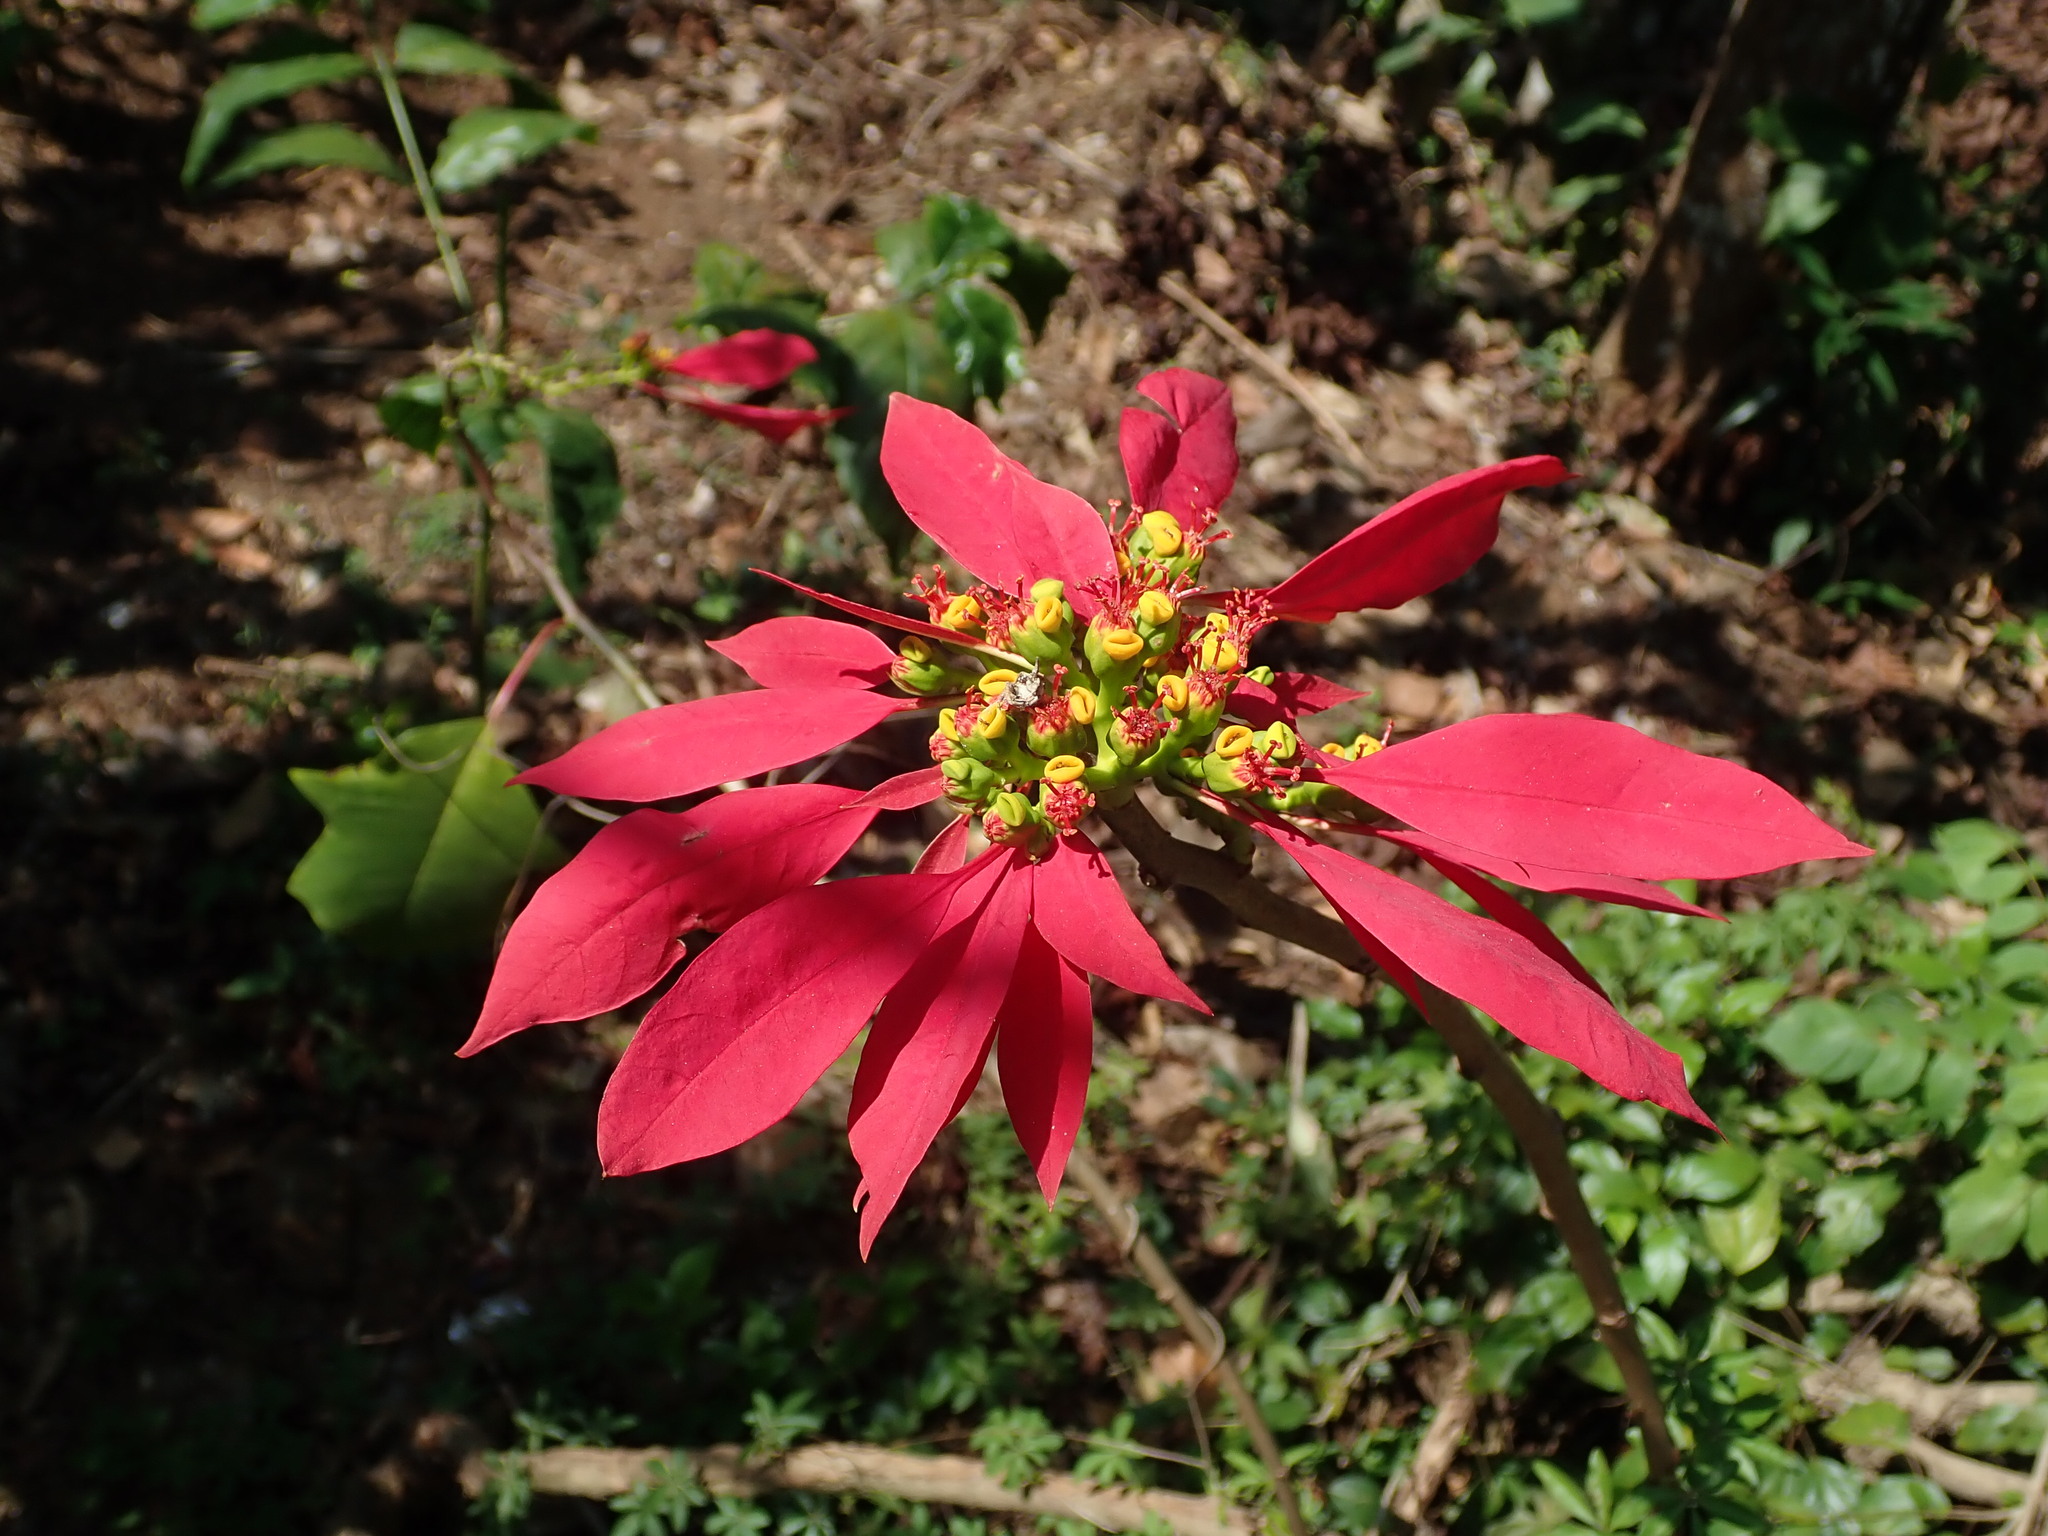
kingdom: Plantae
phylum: Tracheophyta
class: Magnoliopsida
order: Malpighiales
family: Euphorbiaceae
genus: Euphorbia
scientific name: Euphorbia pulcherrima
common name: Christmas-flower
